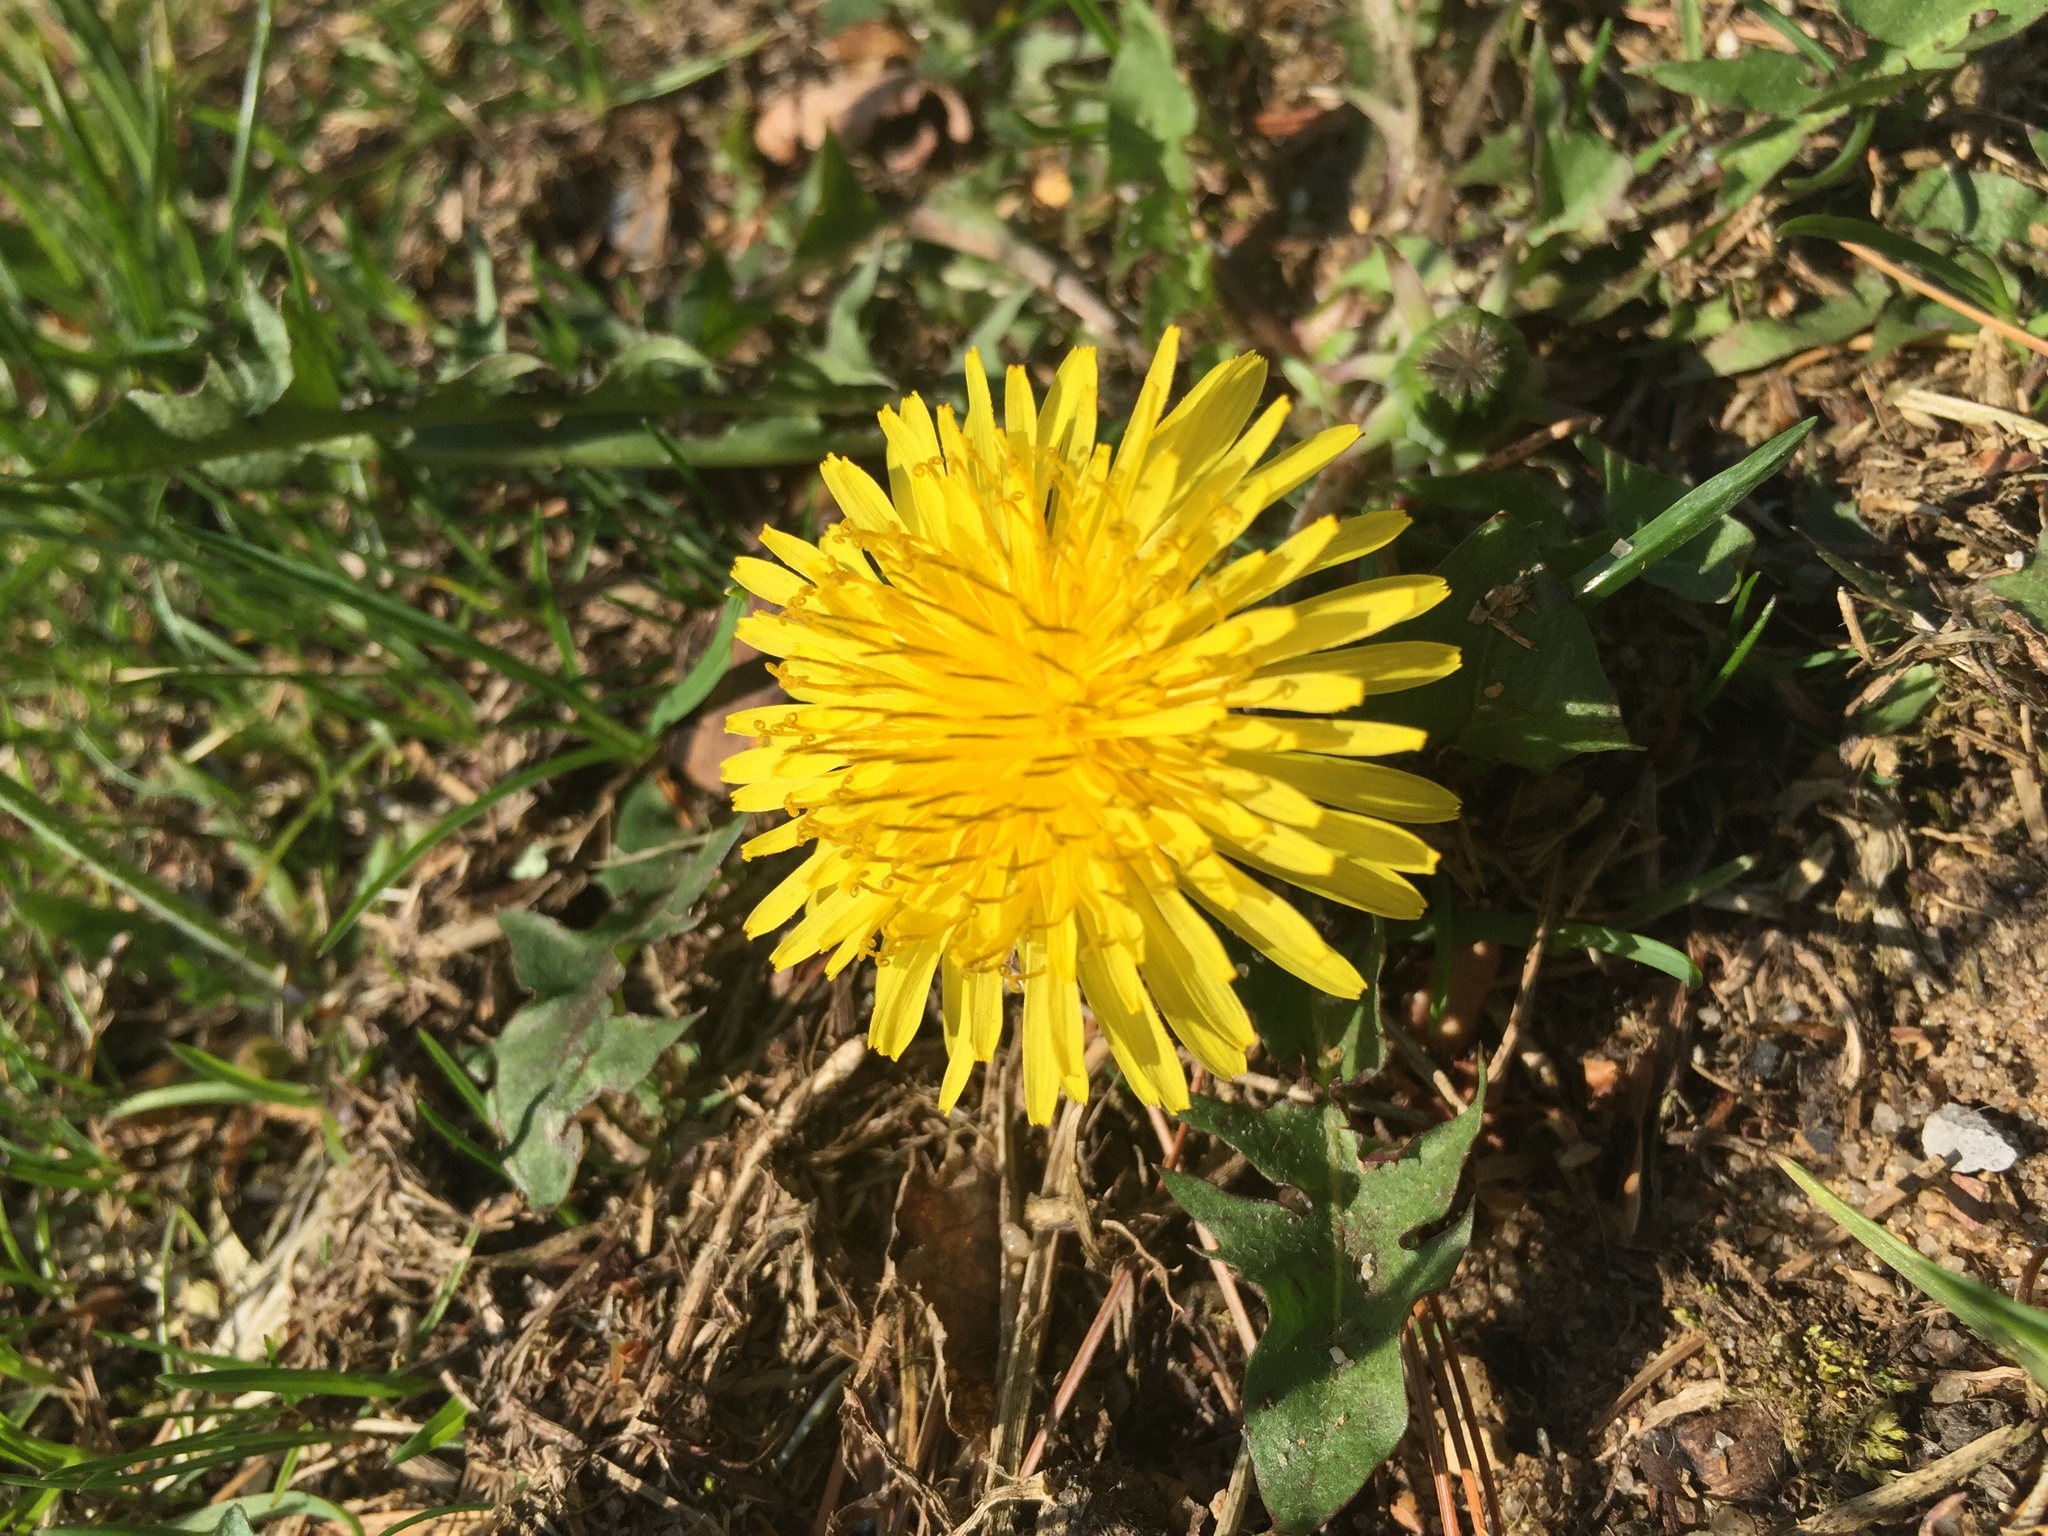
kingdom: Plantae
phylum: Tracheophyta
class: Magnoliopsida
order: Asterales
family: Asteraceae
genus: Taraxacum
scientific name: Taraxacum officinale
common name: Common dandelion
